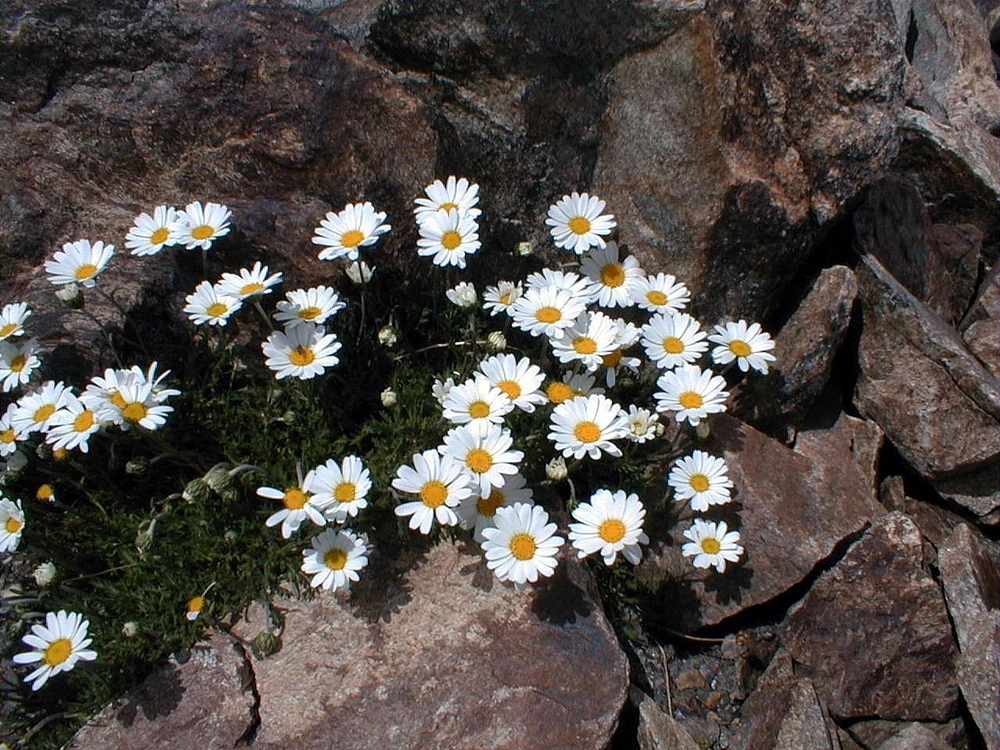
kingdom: Plantae
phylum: Tracheophyta
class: Magnoliopsida
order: Asterales
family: Asteraceae
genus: Leucanthemopsis
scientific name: Leucanthemopsis alpina
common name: Alpine moon daisy
